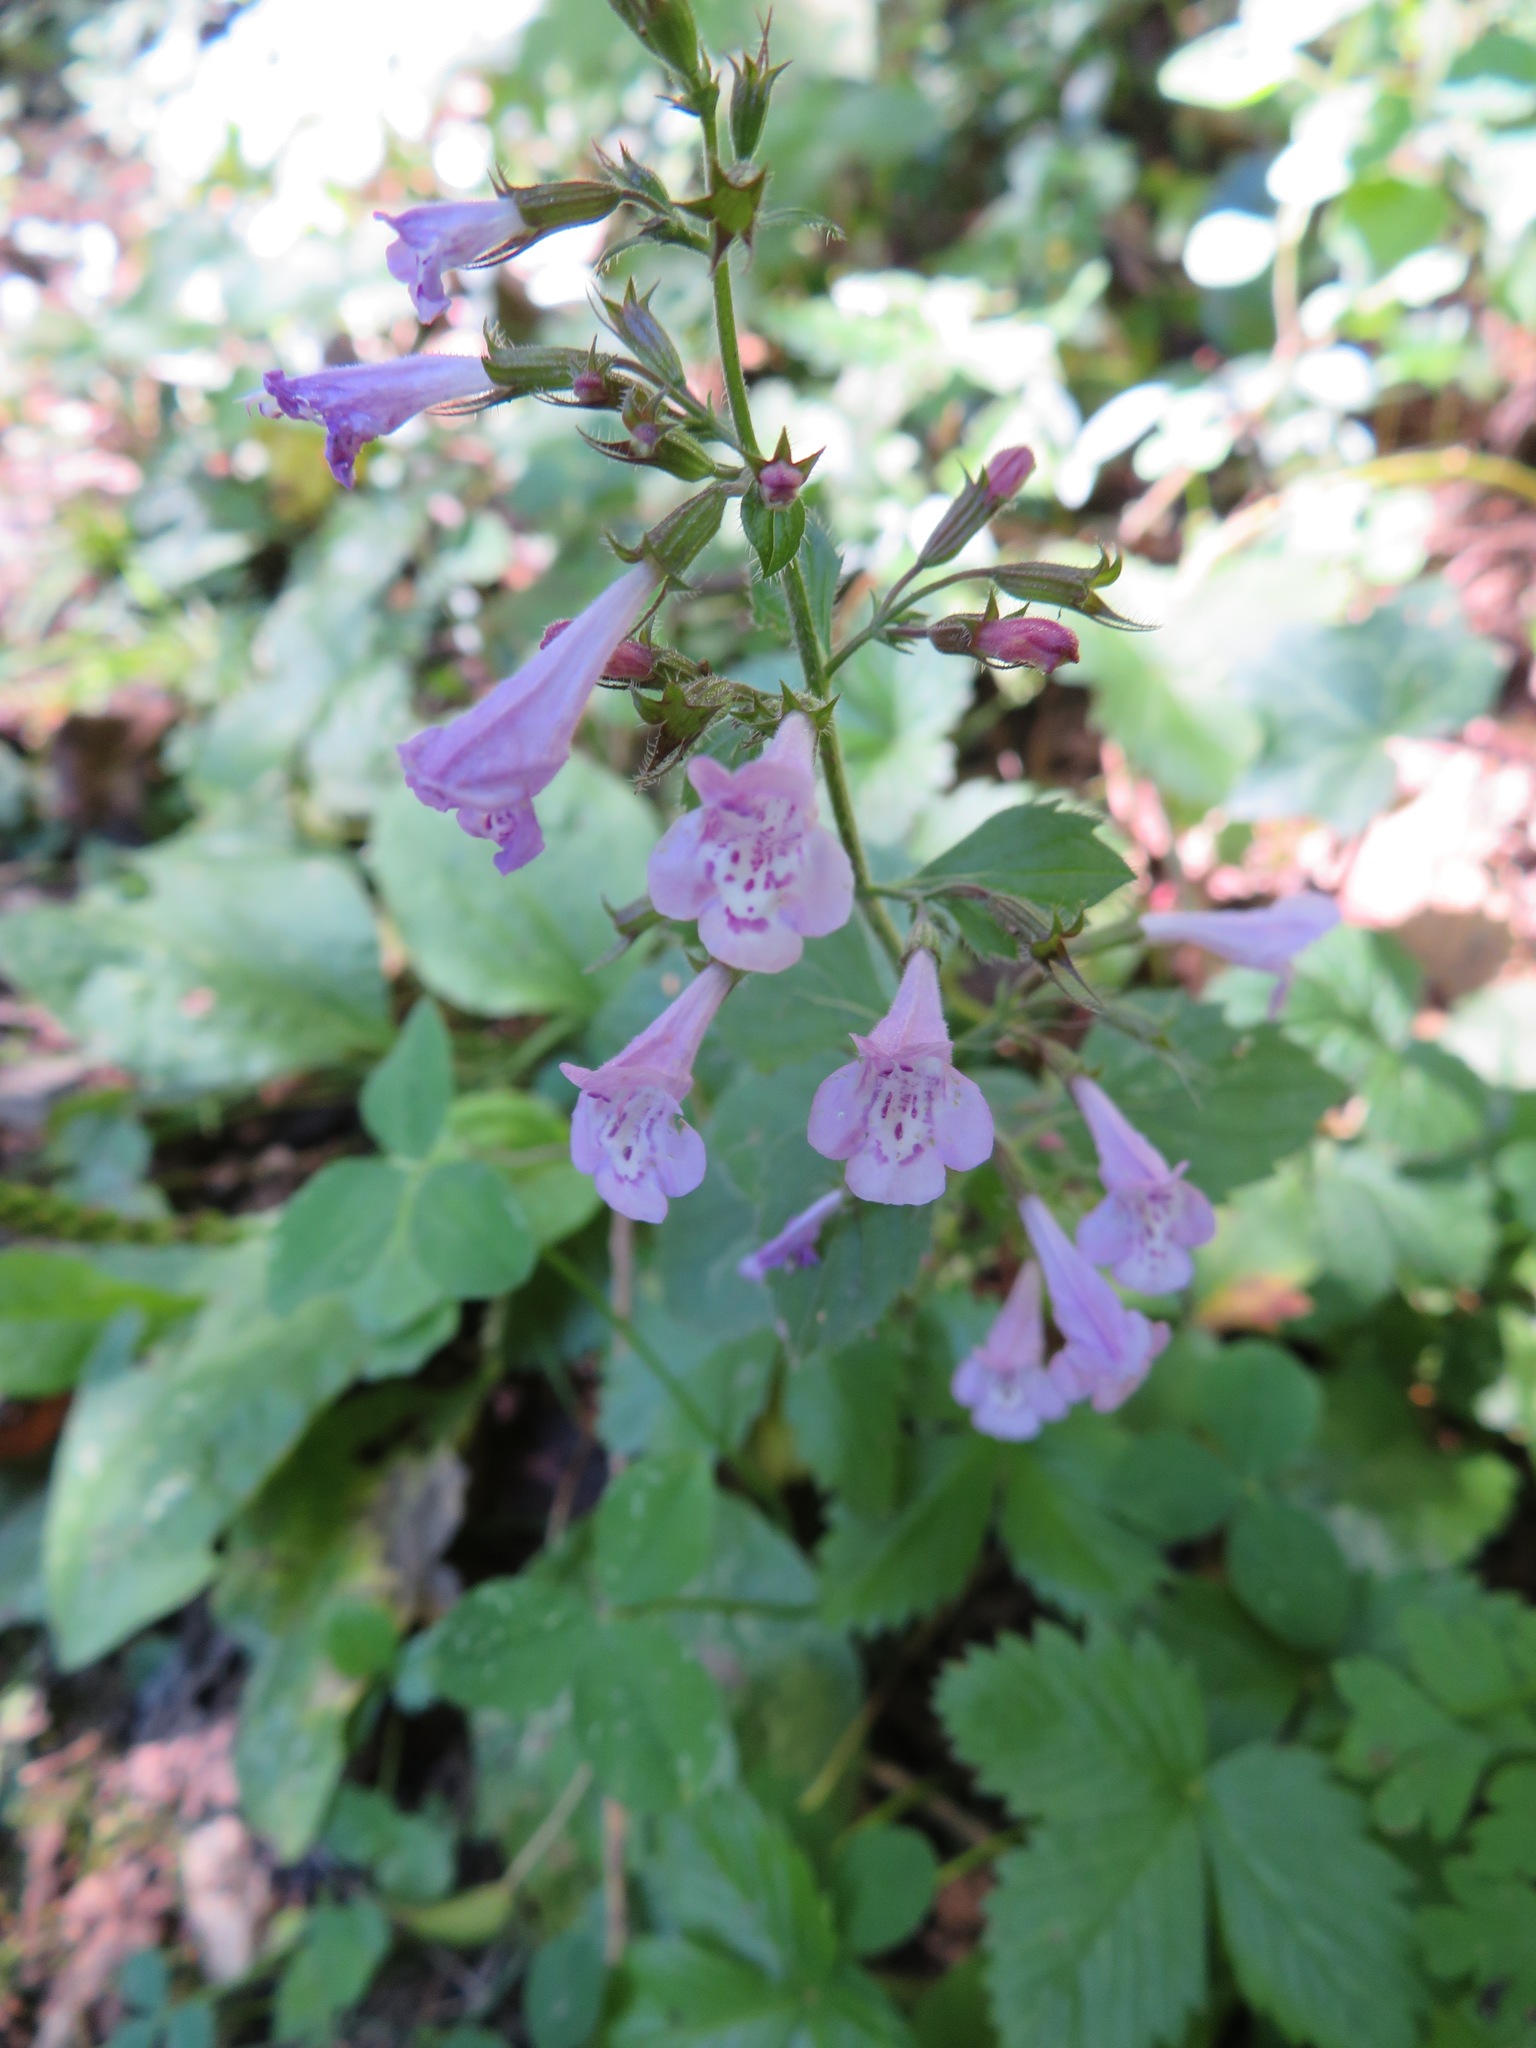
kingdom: Plantae
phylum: Tracheophyta
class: Magnoliopsida
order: Lamiales
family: Lamiaceae
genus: Clinopodium
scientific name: Clinopodium menthifolium
